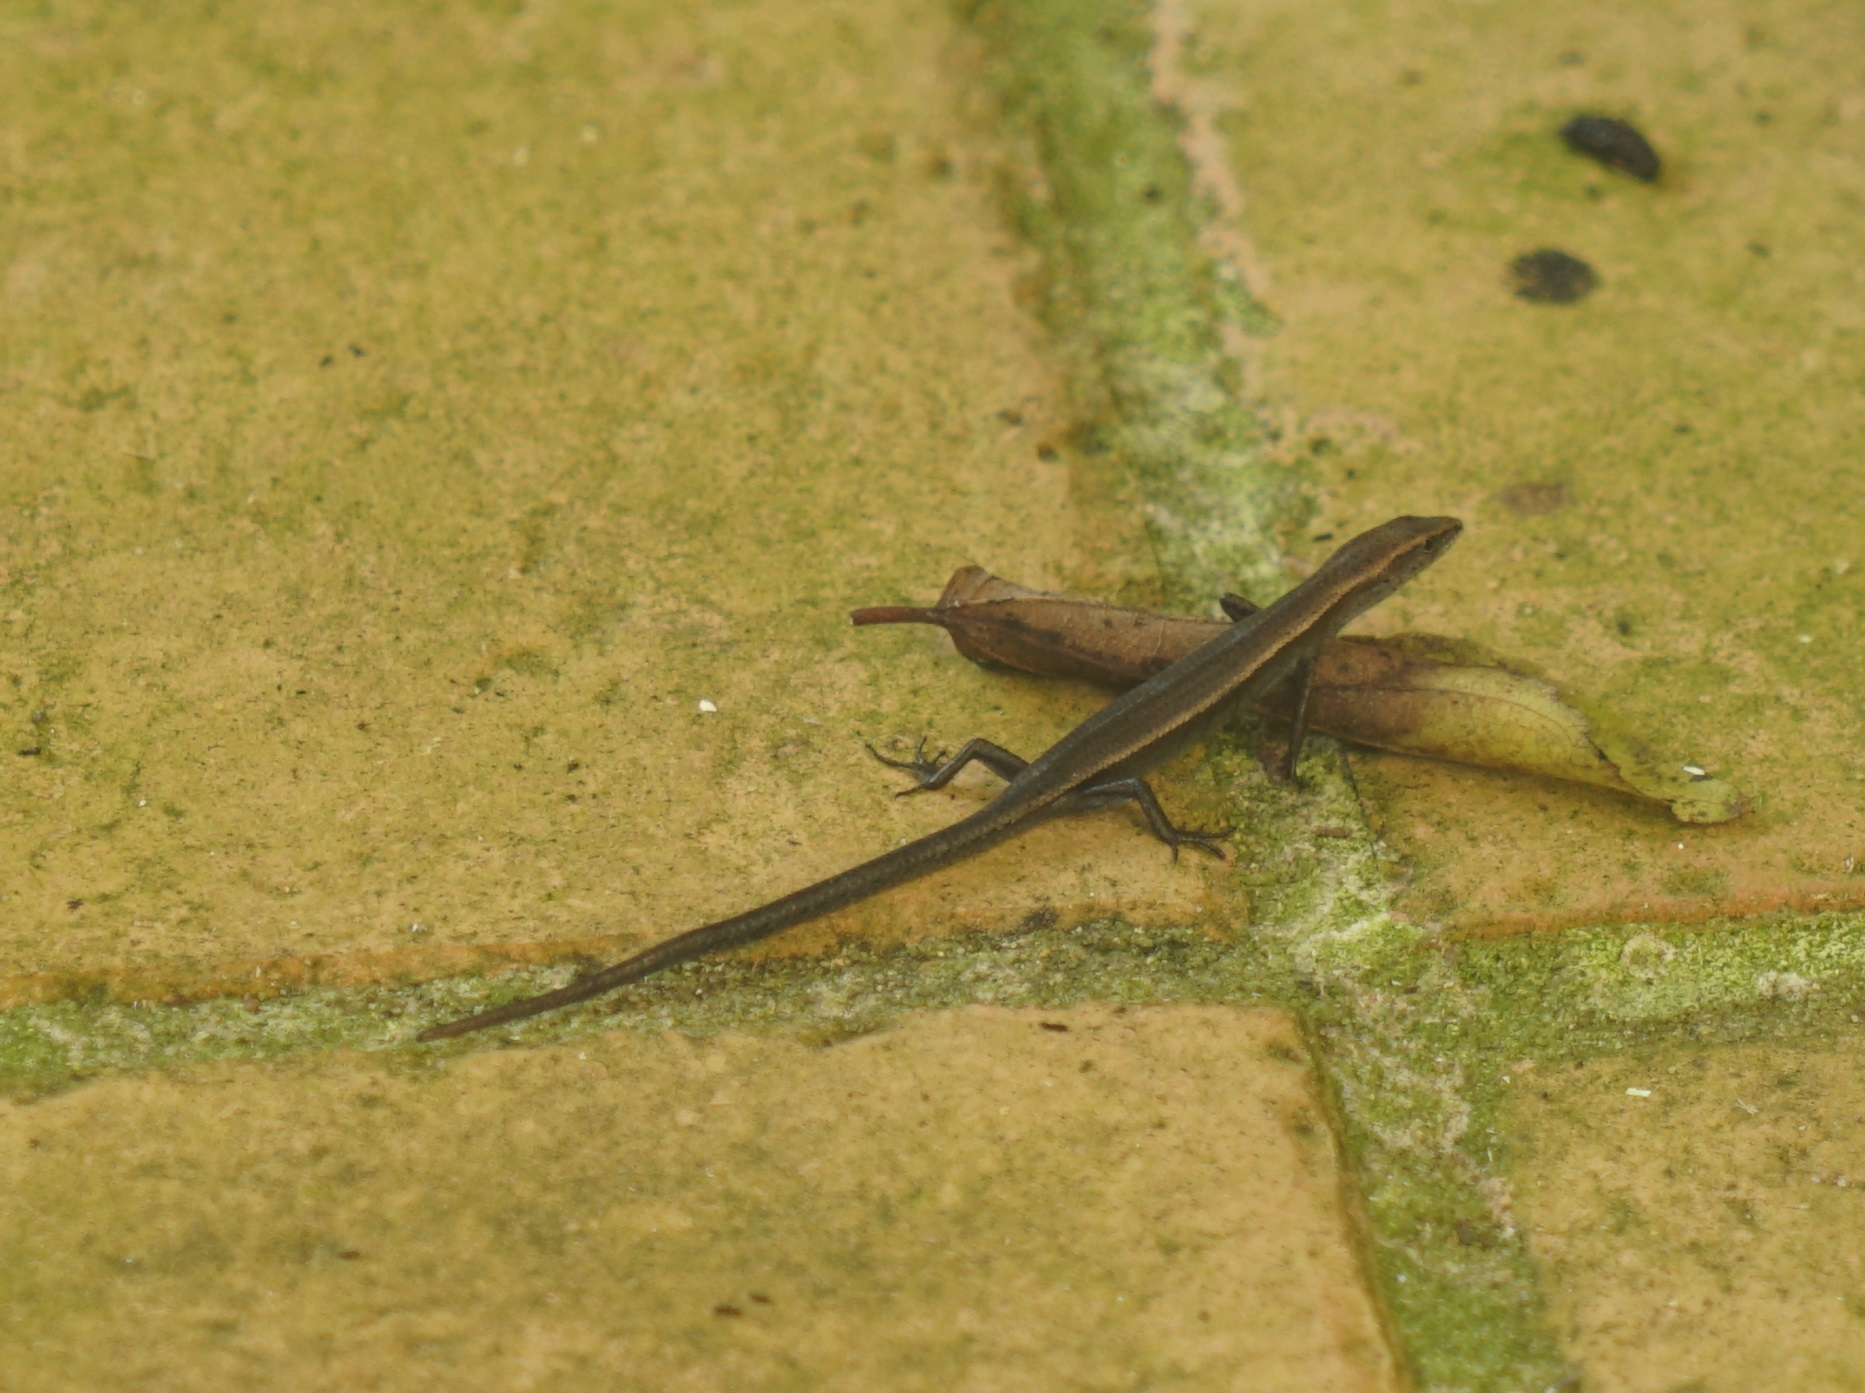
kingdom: Animalia
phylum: Chordata
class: Squamata
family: Scincidae
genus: Lampropholis
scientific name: Lampropholis delicata
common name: Plague skink
